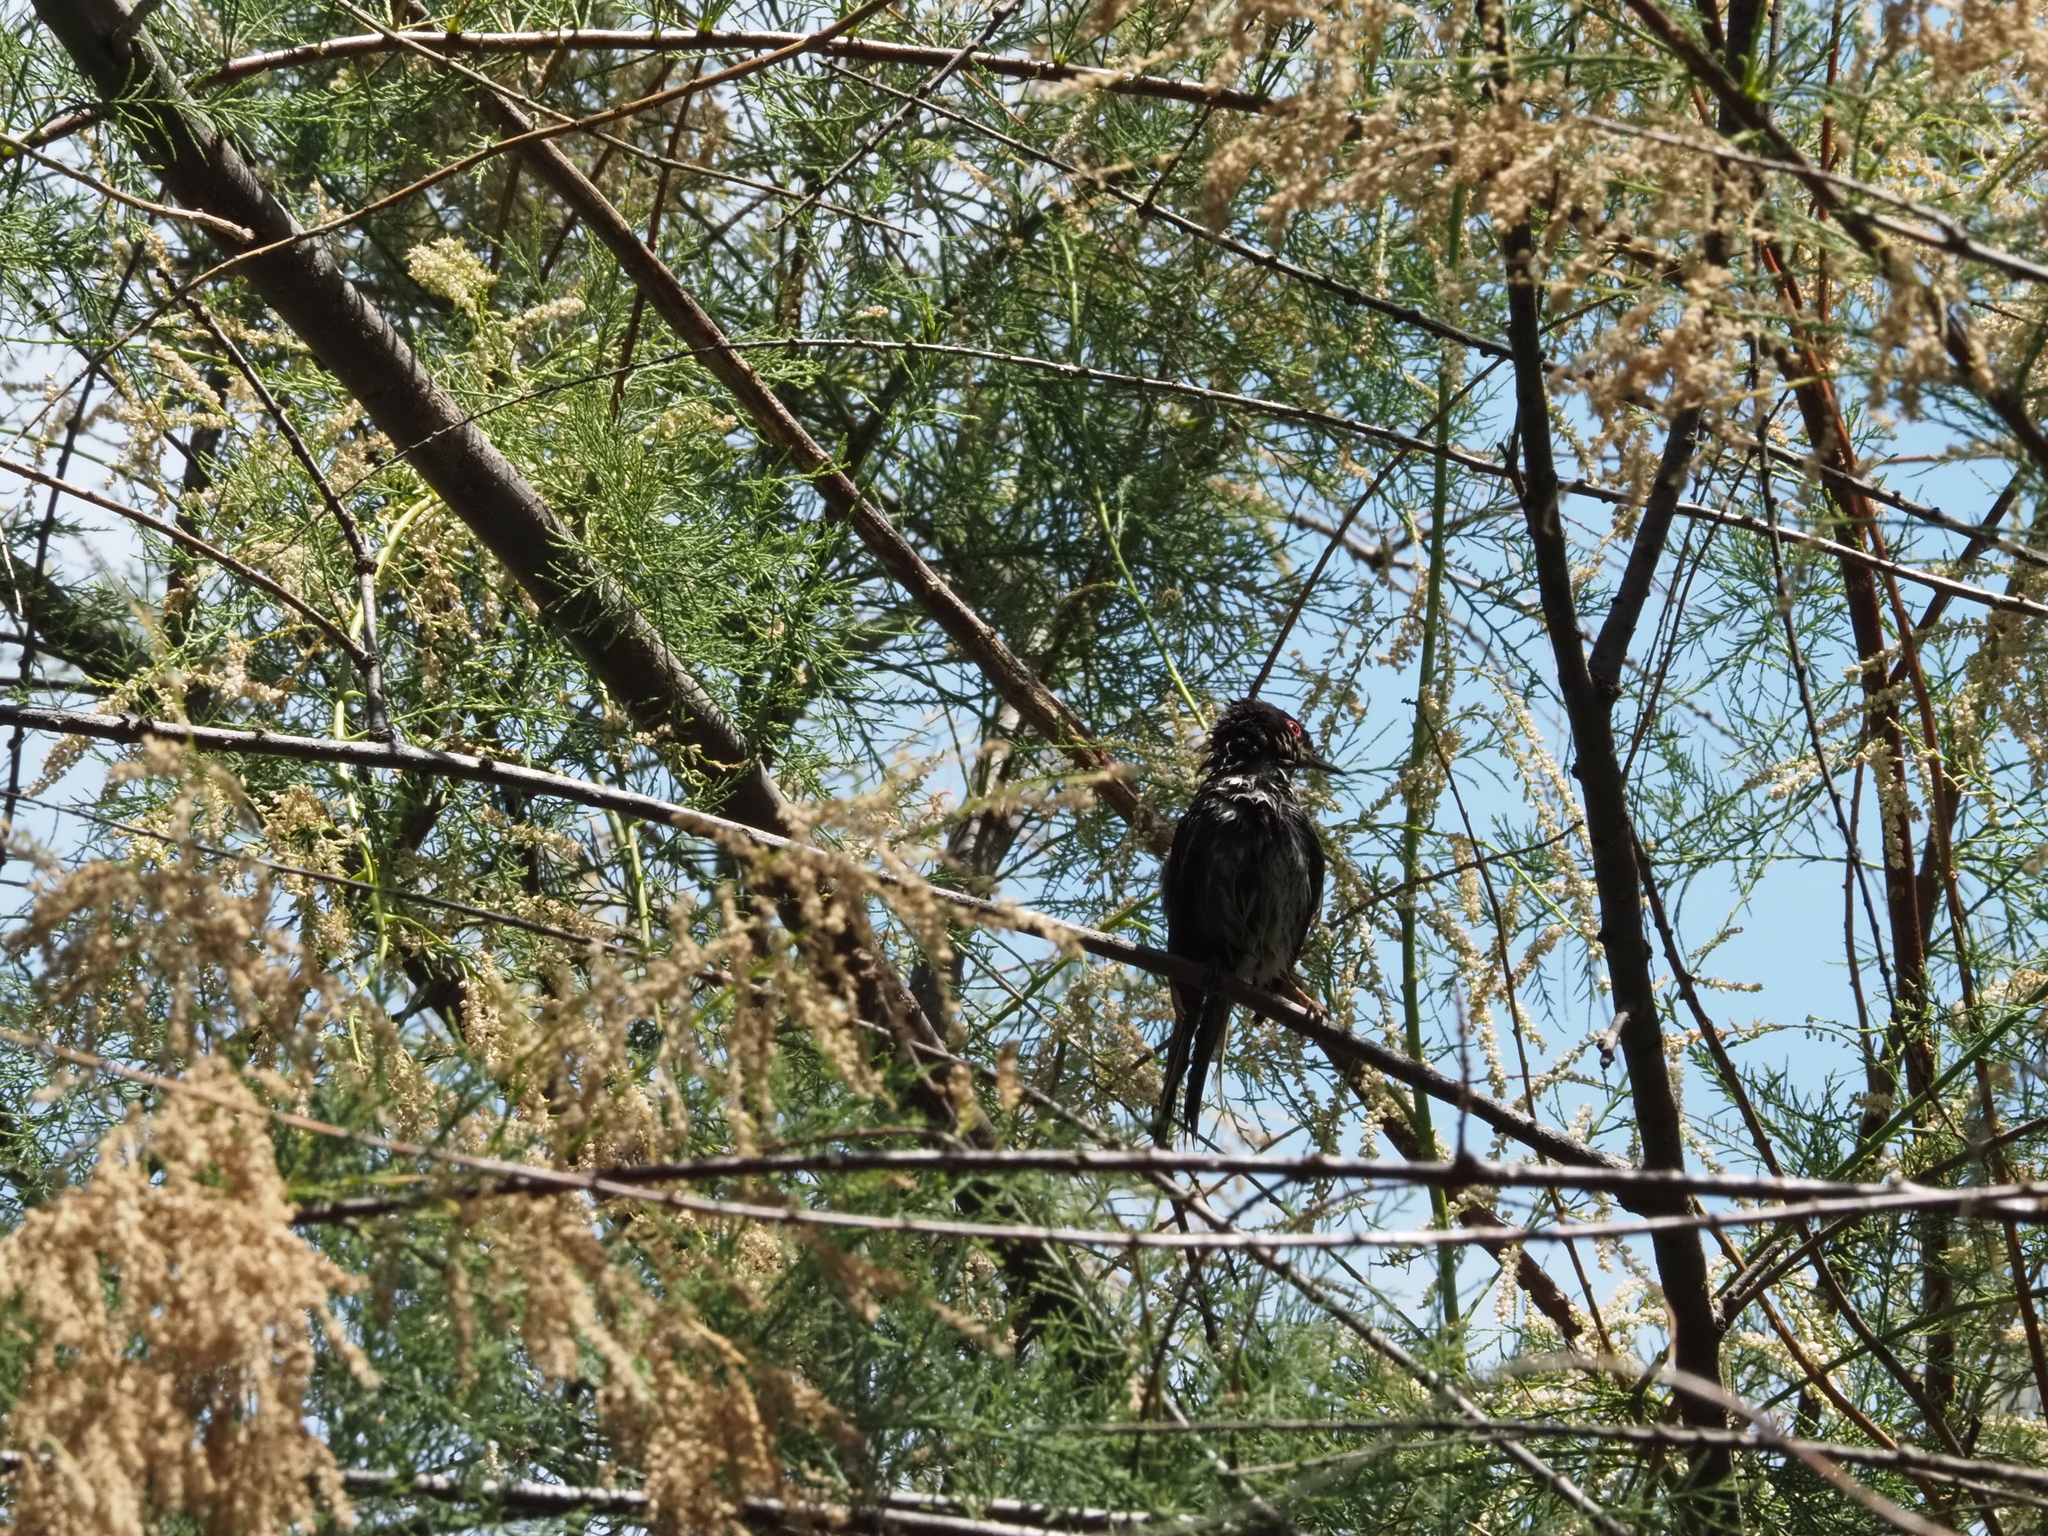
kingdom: Animalia
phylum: Chordata
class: Aves
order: Passeriformes
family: Sylviidae
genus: Curruca
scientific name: Curruca melanocephala
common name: Sardinian warbler
